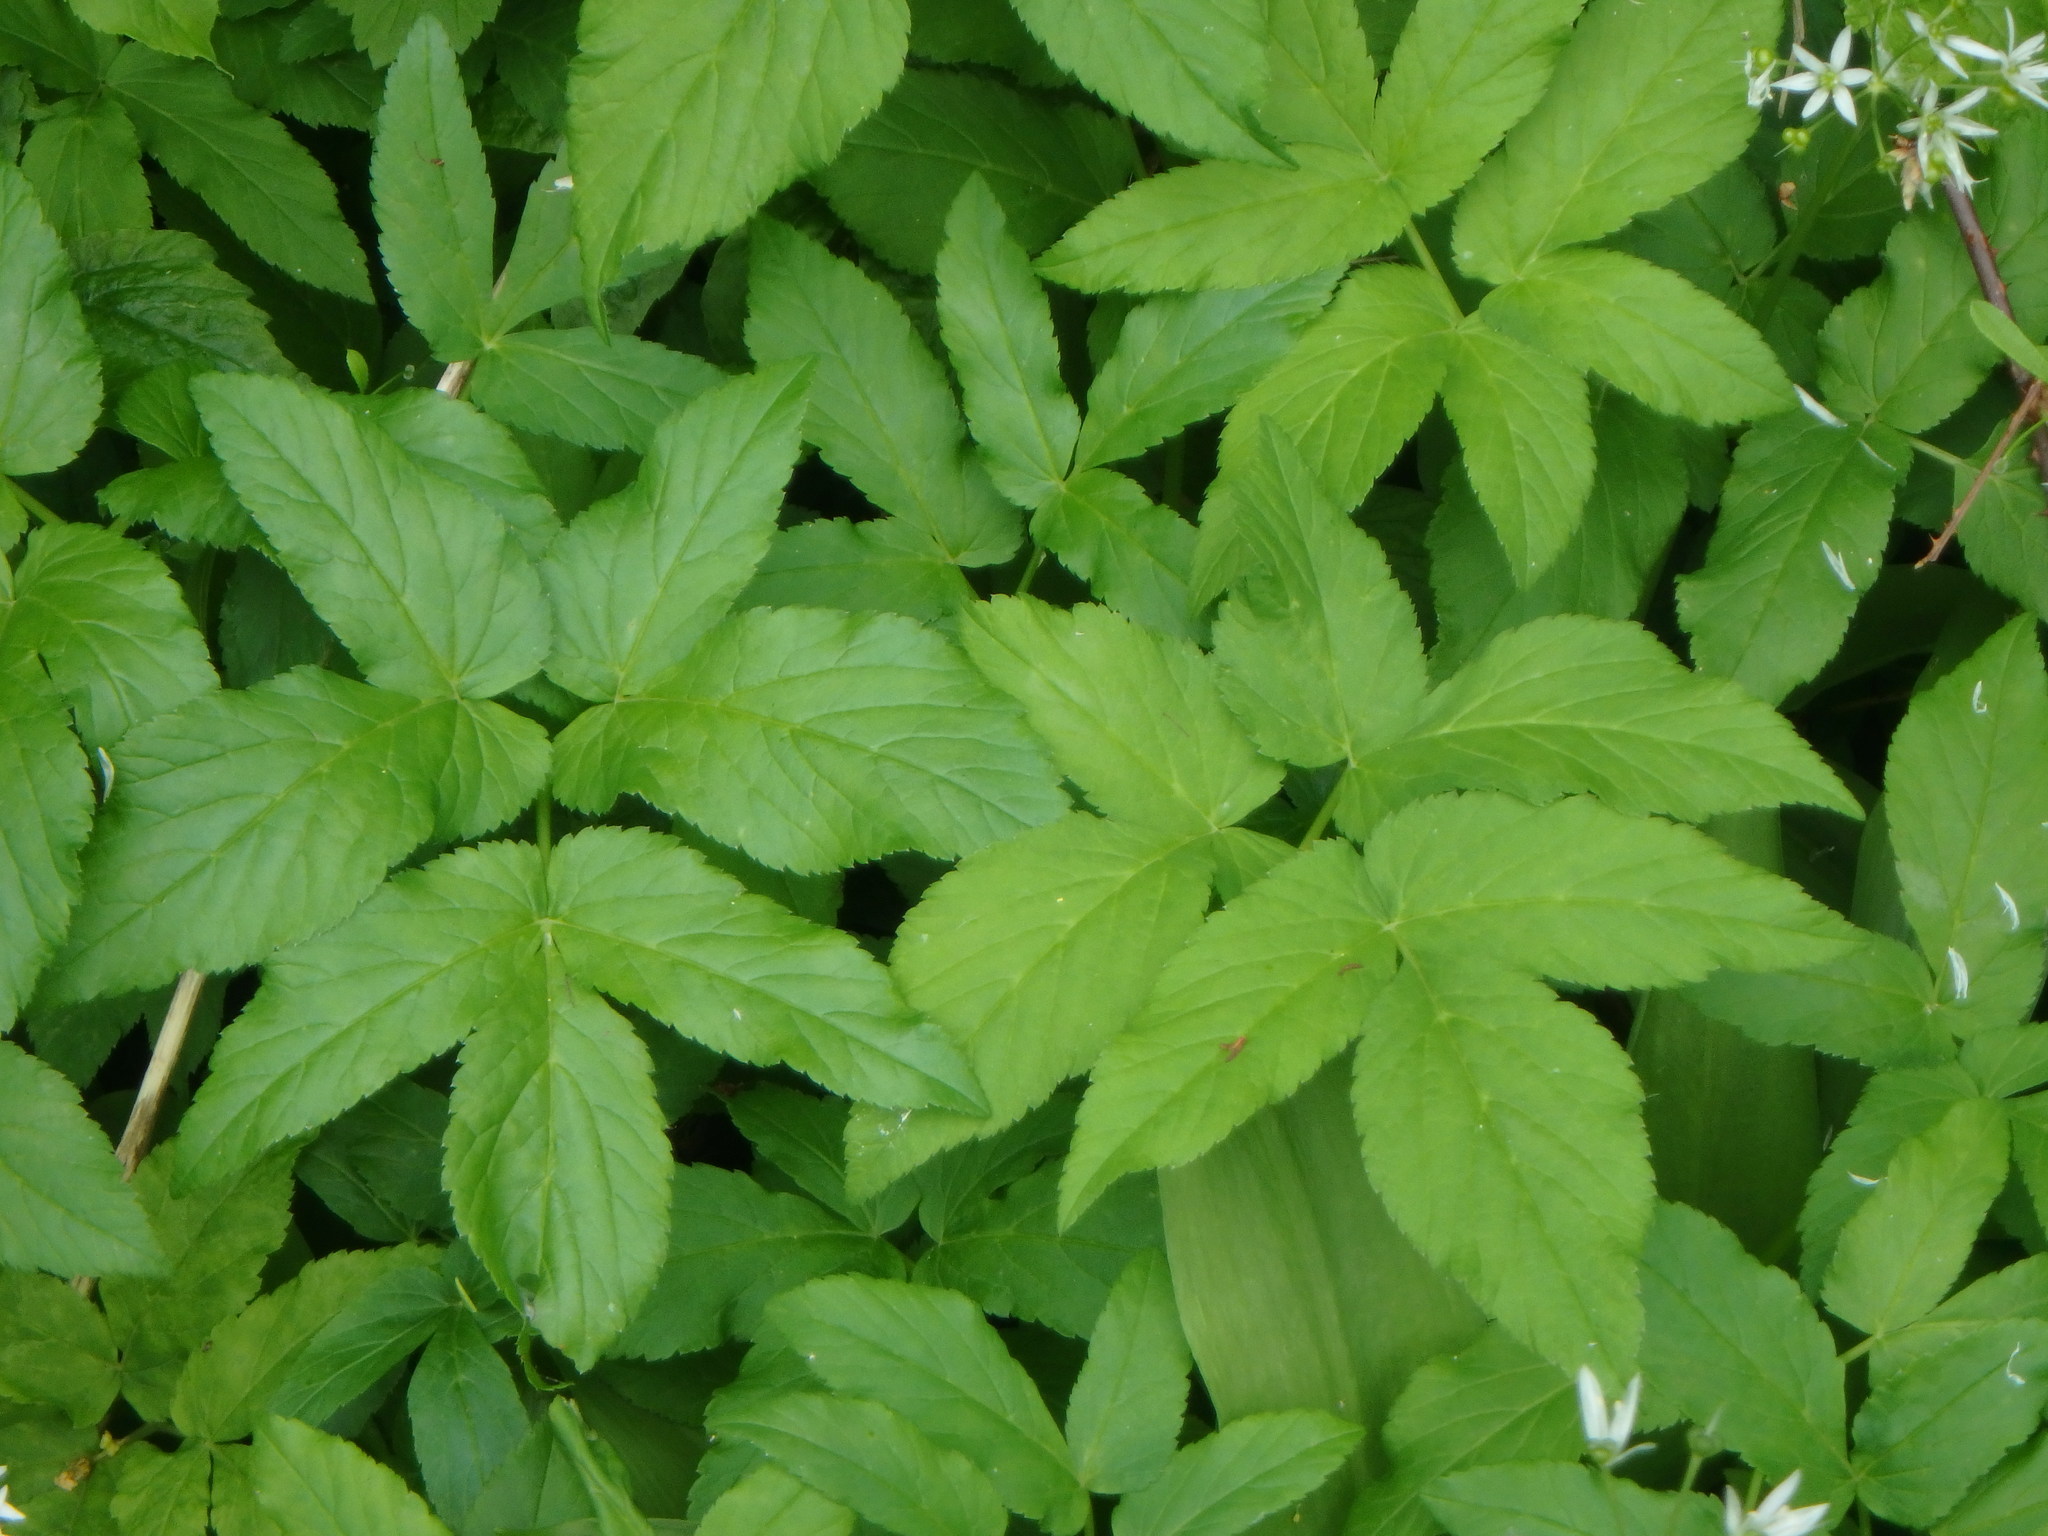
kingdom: Plantae
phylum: Tracheophyta
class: Magnoliopsida
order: Apiales
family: Apiaceae
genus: Aegopodium
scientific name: Aegopodium podagraria
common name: Ground-elder
